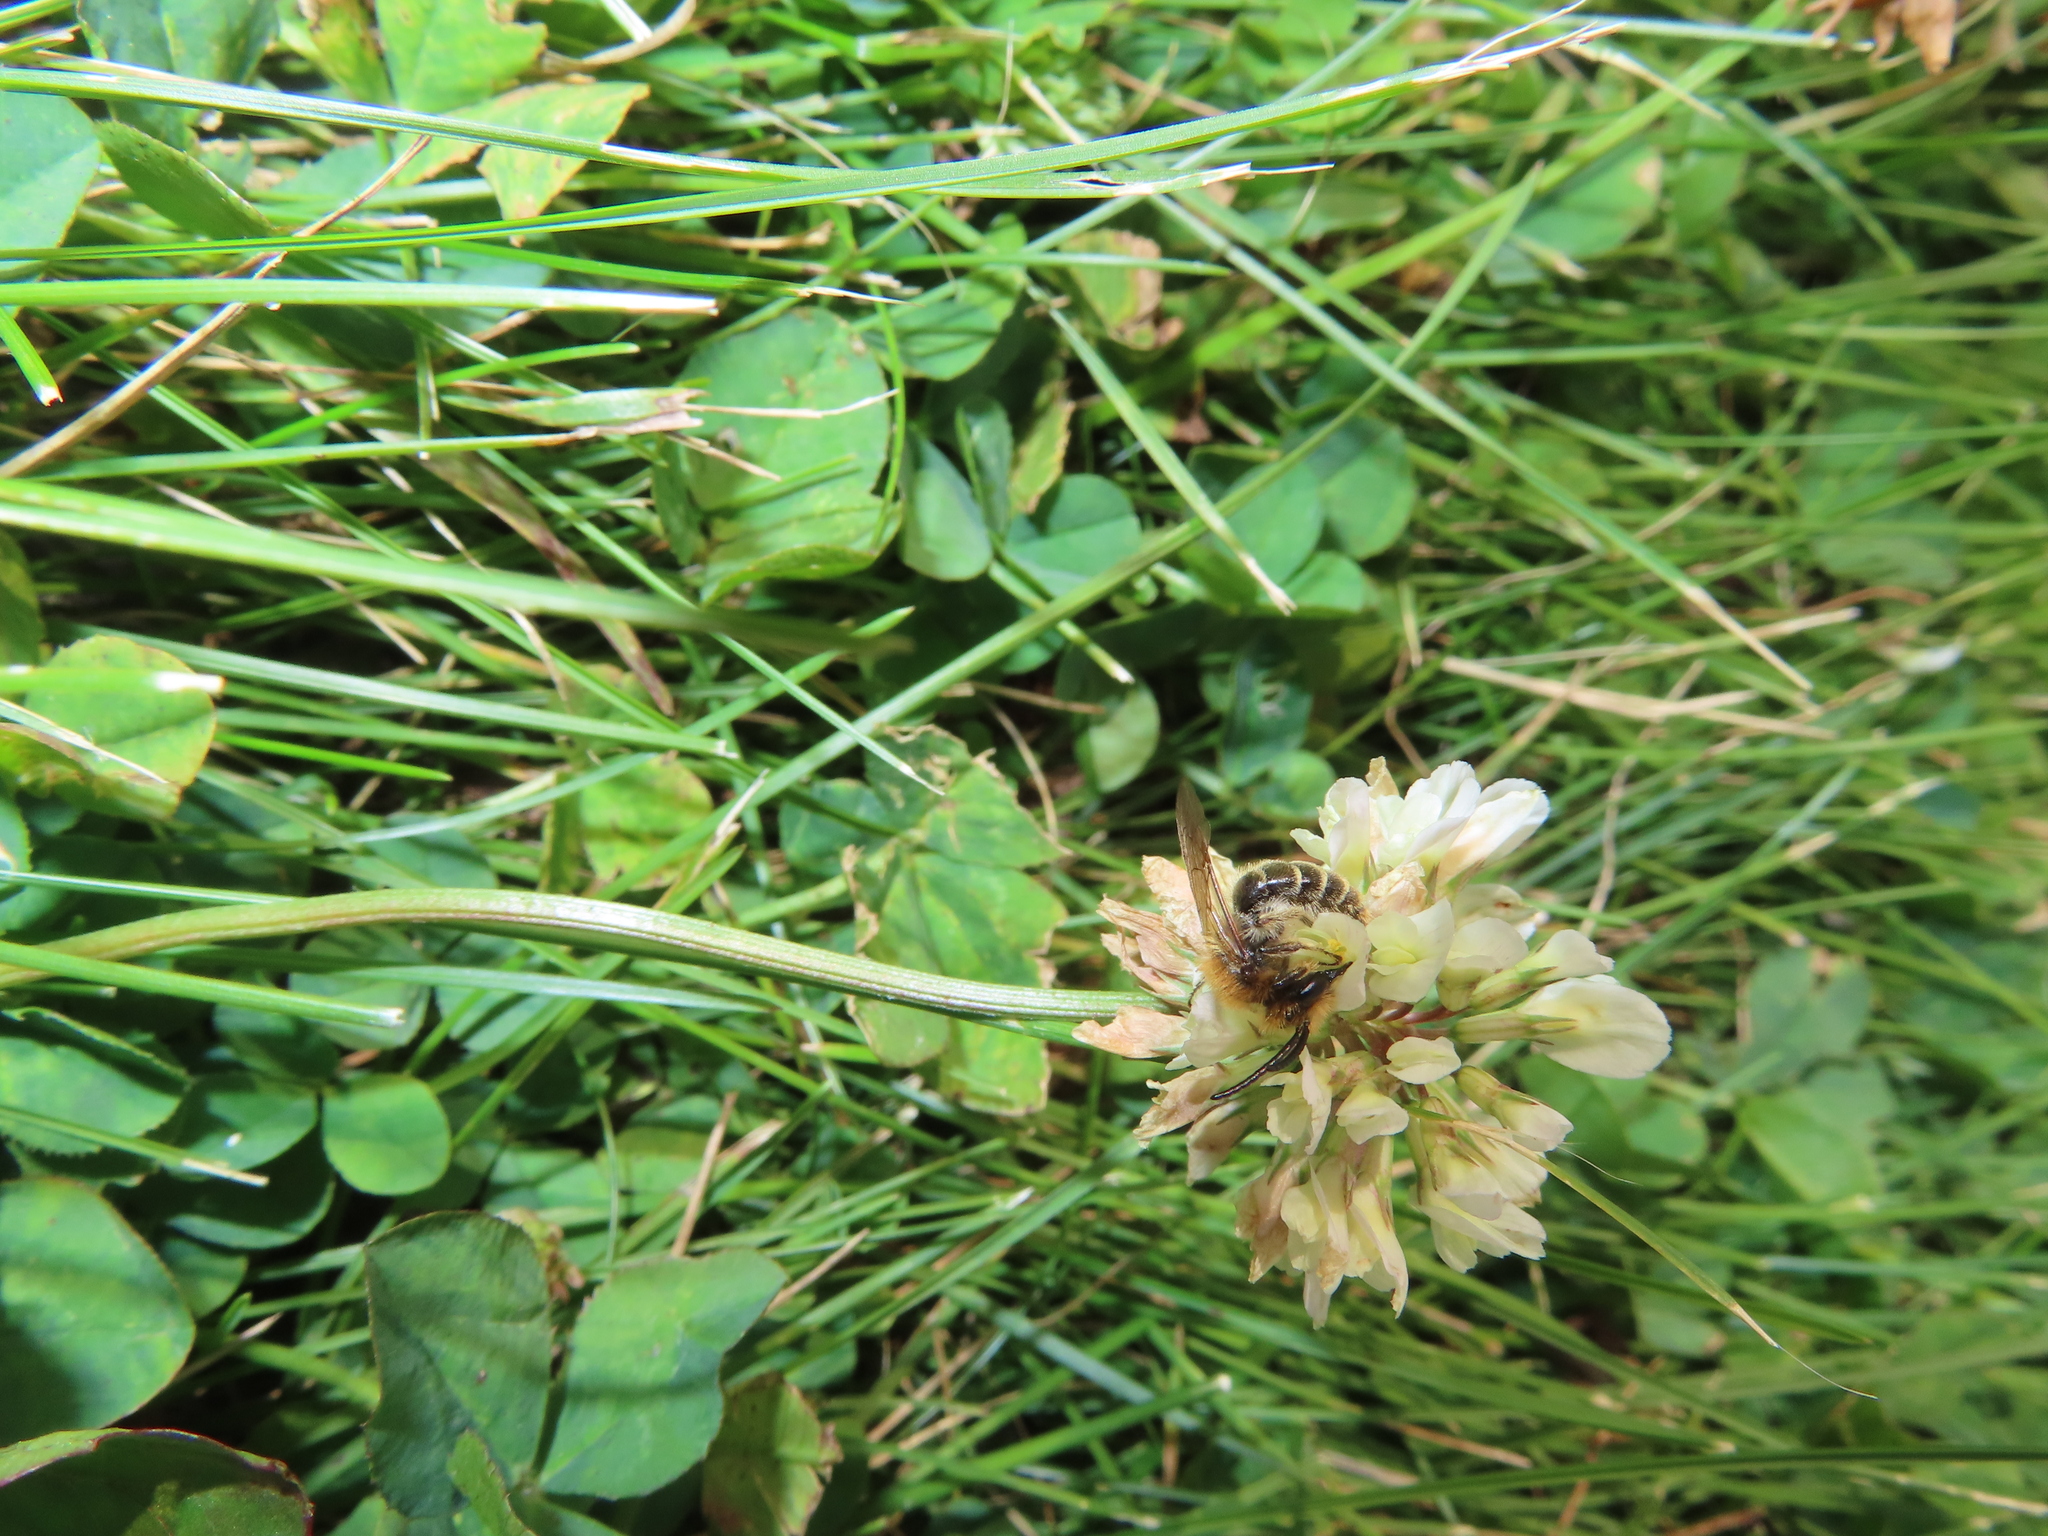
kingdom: Animalia
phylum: Arthropoda
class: Insecta
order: Hymenoptera
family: Andrenidae
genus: Andrena
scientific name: Andrena wilkella
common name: Wilke's mining bee
